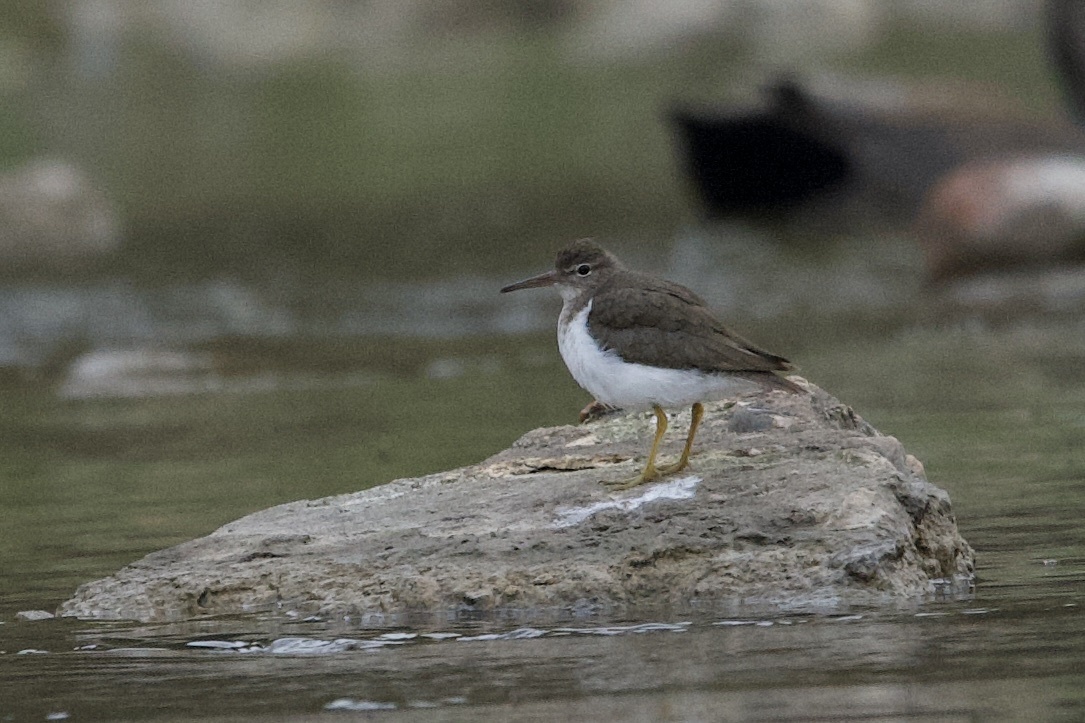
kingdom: Animalia
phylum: Chordata
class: Aves
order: Charadriiformes
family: Scolopacidae
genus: Actitis
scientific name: Actitis macularius
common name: Spotted sandpiper
